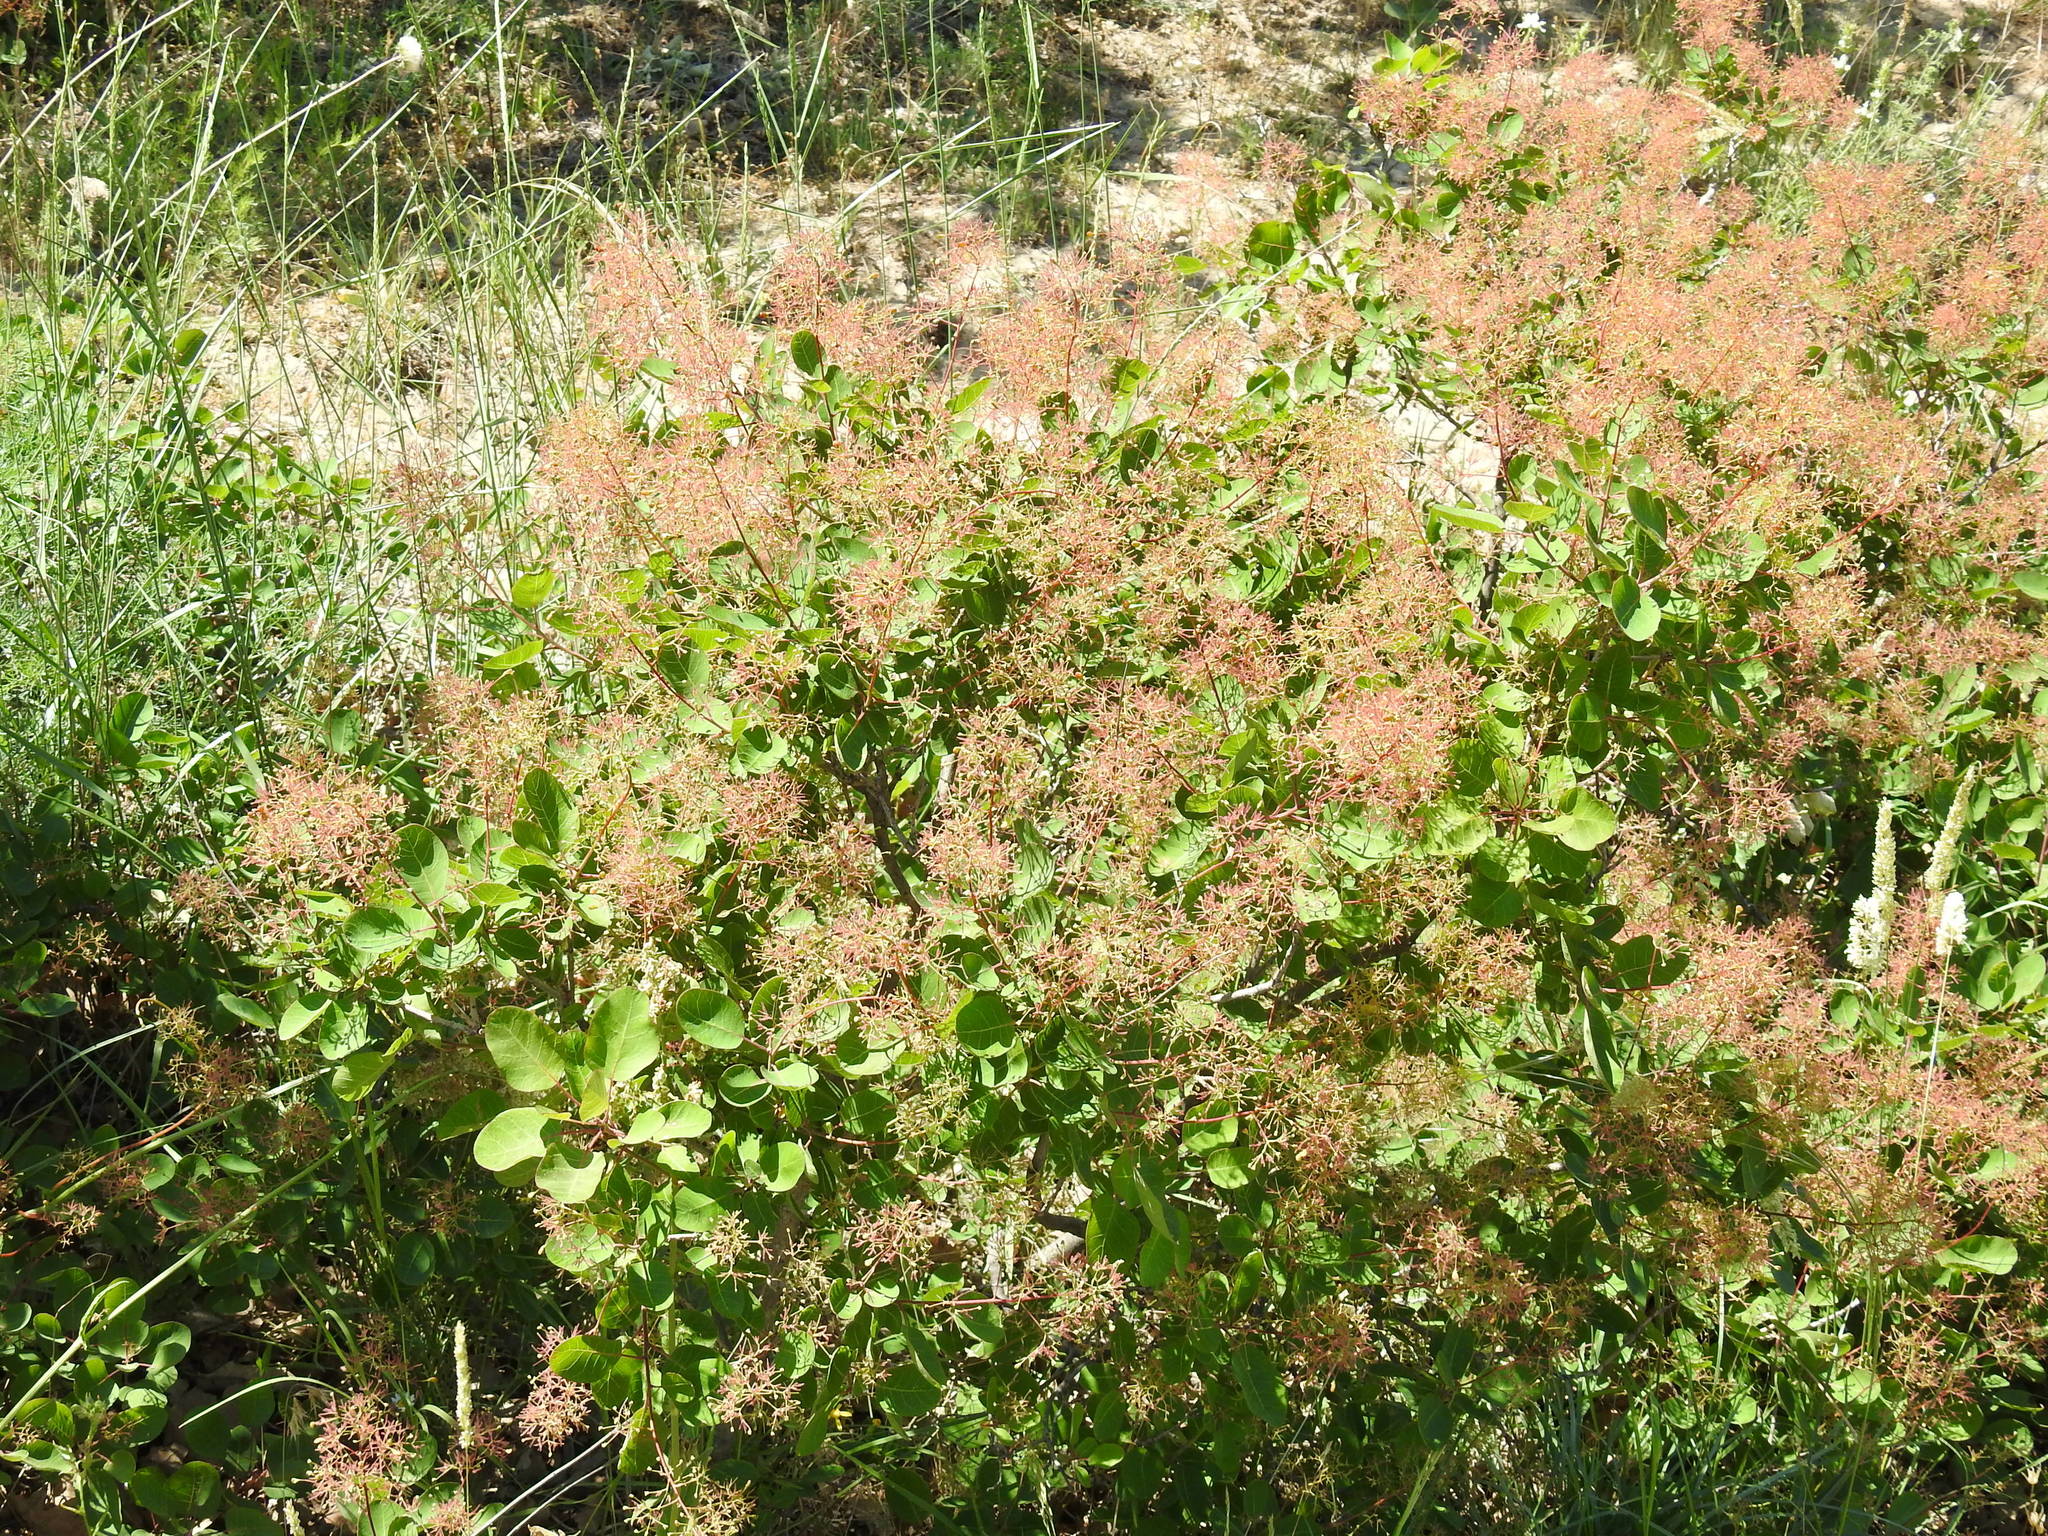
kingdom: Plantae
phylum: Tracheophyta
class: Magnoliopsida
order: Sapindales
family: Anacardiaceae
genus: Cotinus
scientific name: Cotinus coggygria
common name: Smoke-tree
